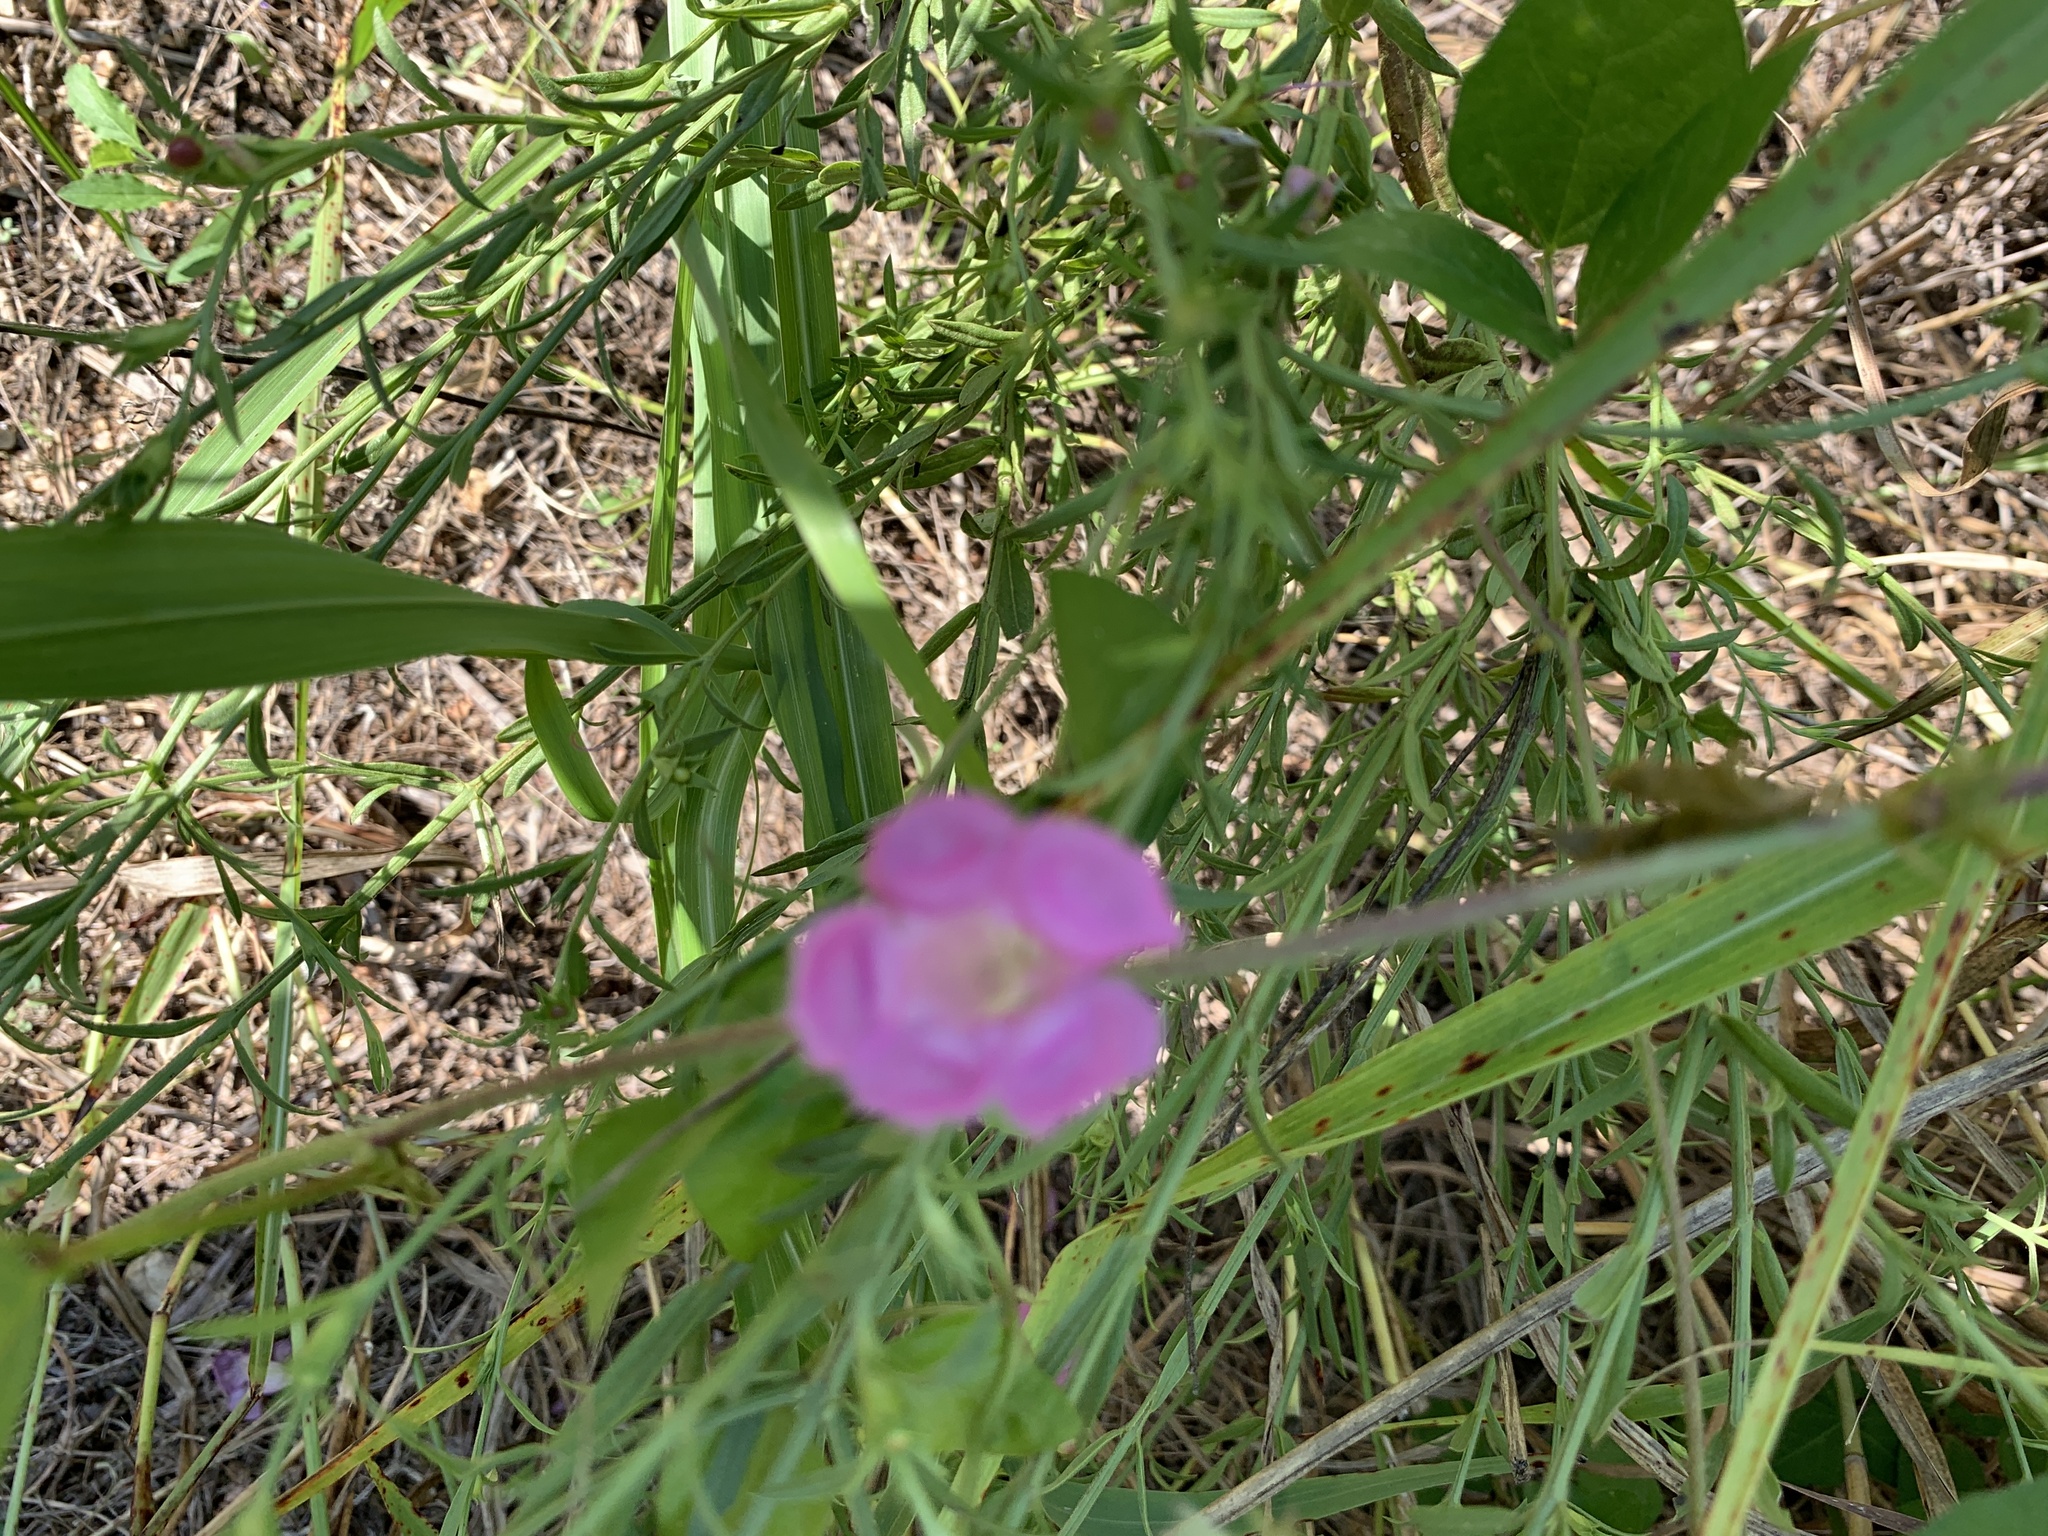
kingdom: Plantae
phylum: Tracheophyta
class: Magnoliopsida
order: Lamiales
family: Orobanchaceae
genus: Agalinis
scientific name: Agalinis heterophylla
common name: Prairie agalinis
